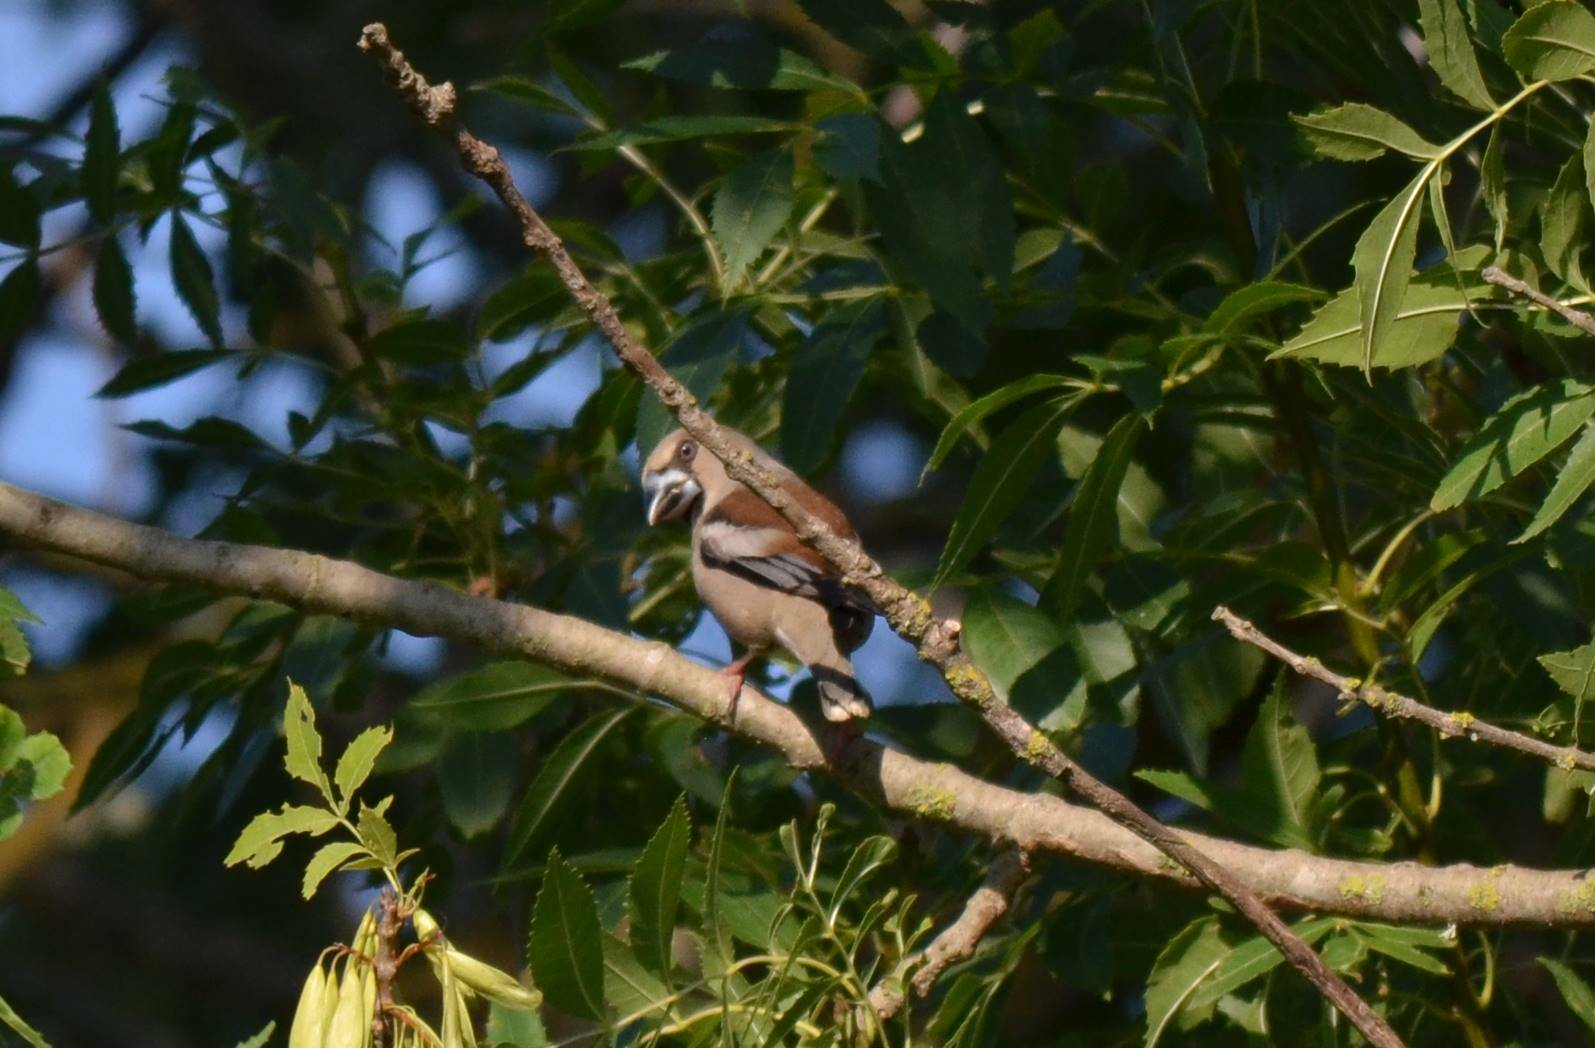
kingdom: Animalia
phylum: Chordata
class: Aves
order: Passeriformes
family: Fringillidae
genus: Coccothraustes
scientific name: Coccothraustes coccothraustes
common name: Hawfinch
